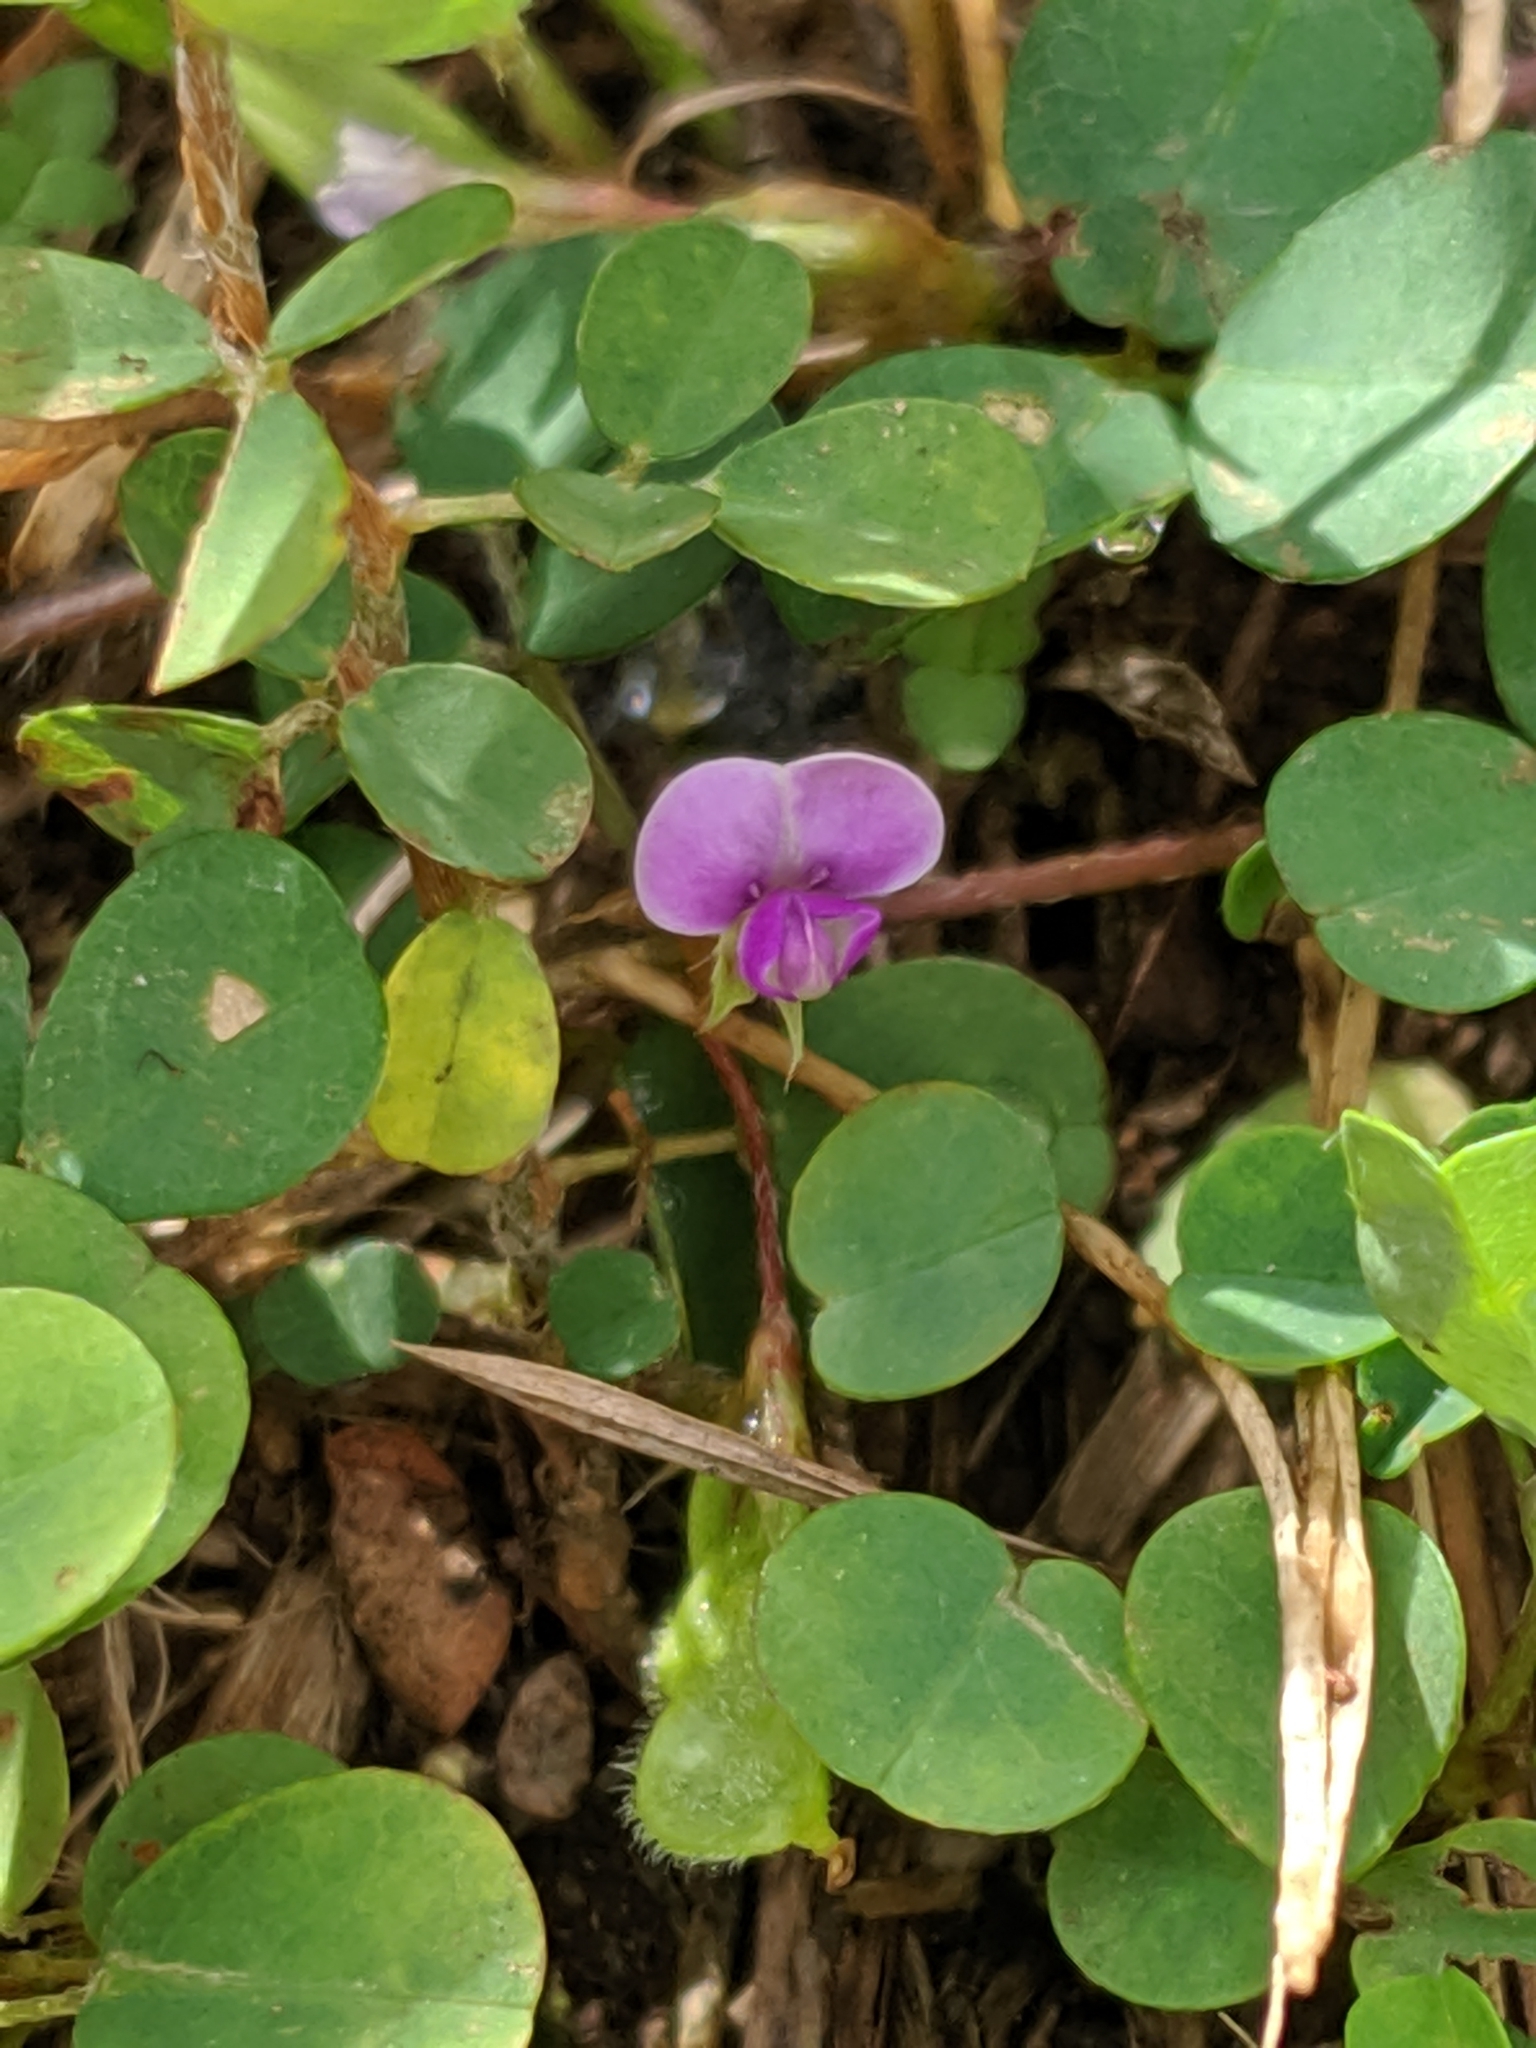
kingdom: Plantae
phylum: Tracheophyta
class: Magnoliopsida
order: Fabales
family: Fabaceae
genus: Grona
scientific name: Grona triflora
